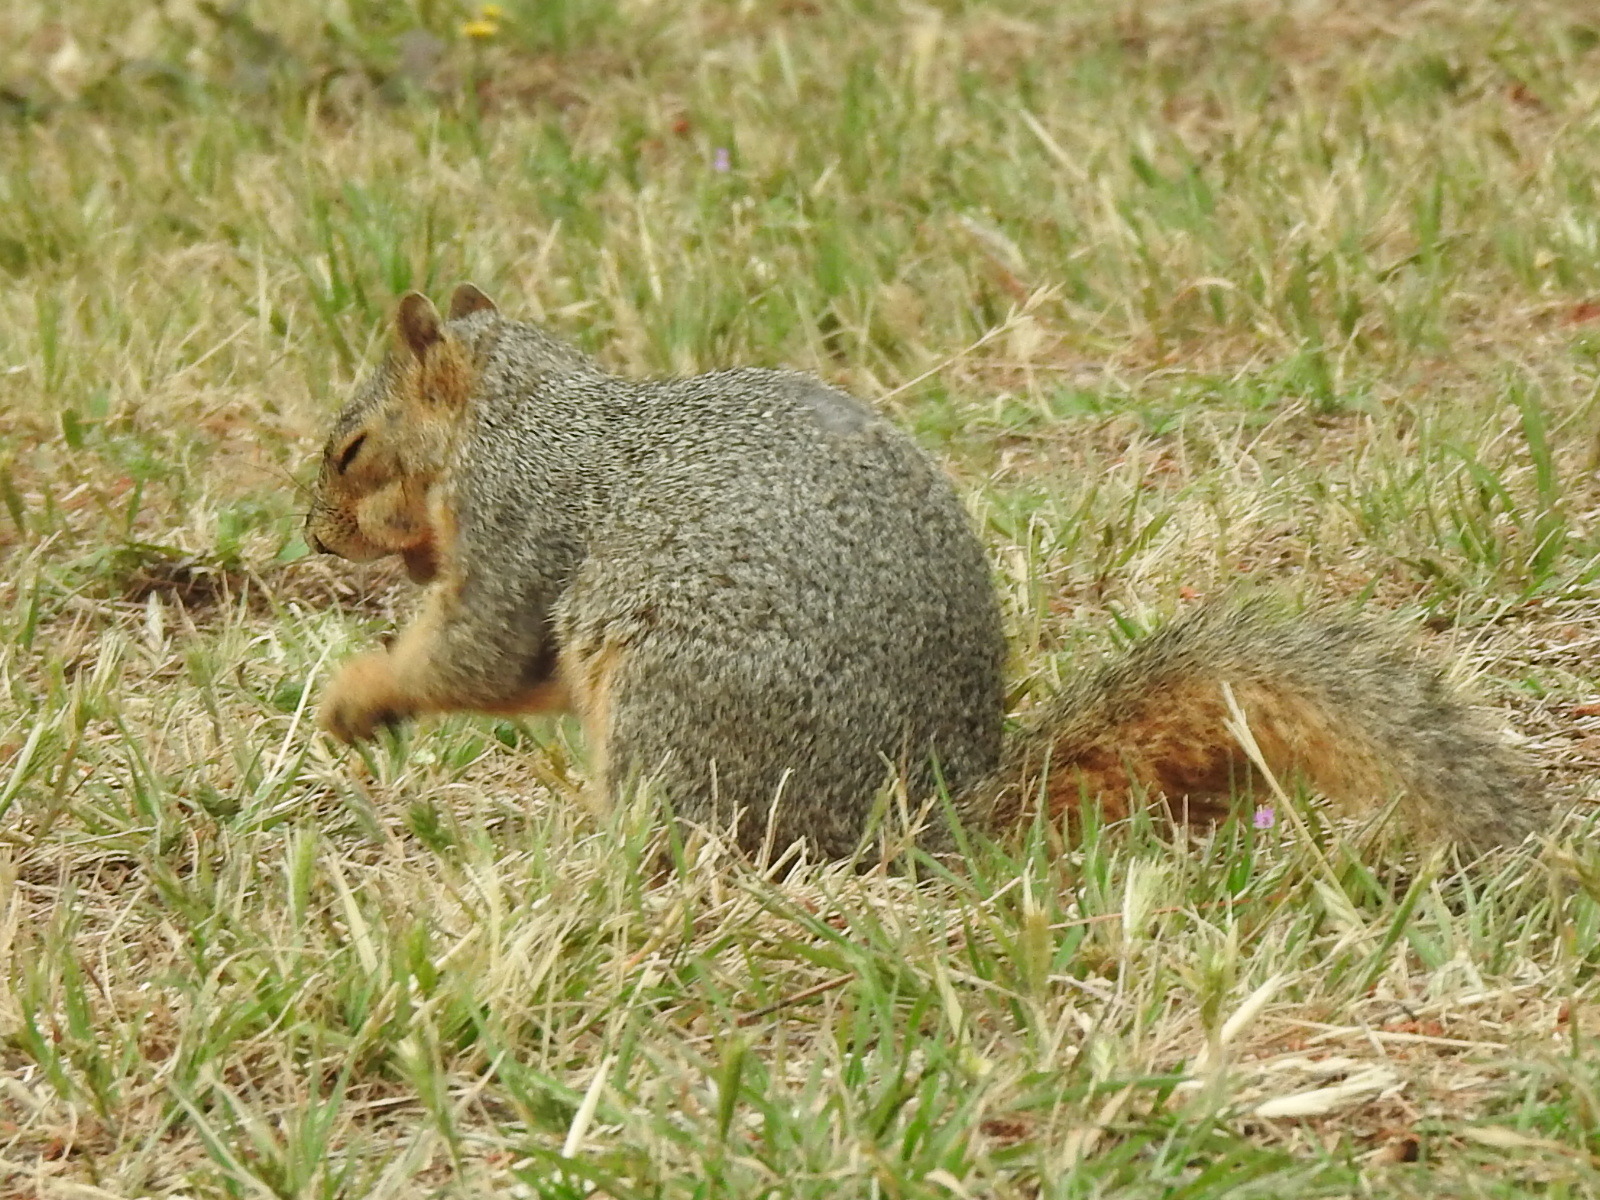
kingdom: Animalia
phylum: Chordata
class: Mammalia
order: Rodentia
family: Sciuridae
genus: Sciurus
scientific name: Sciurus niger
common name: Fox squirrel
